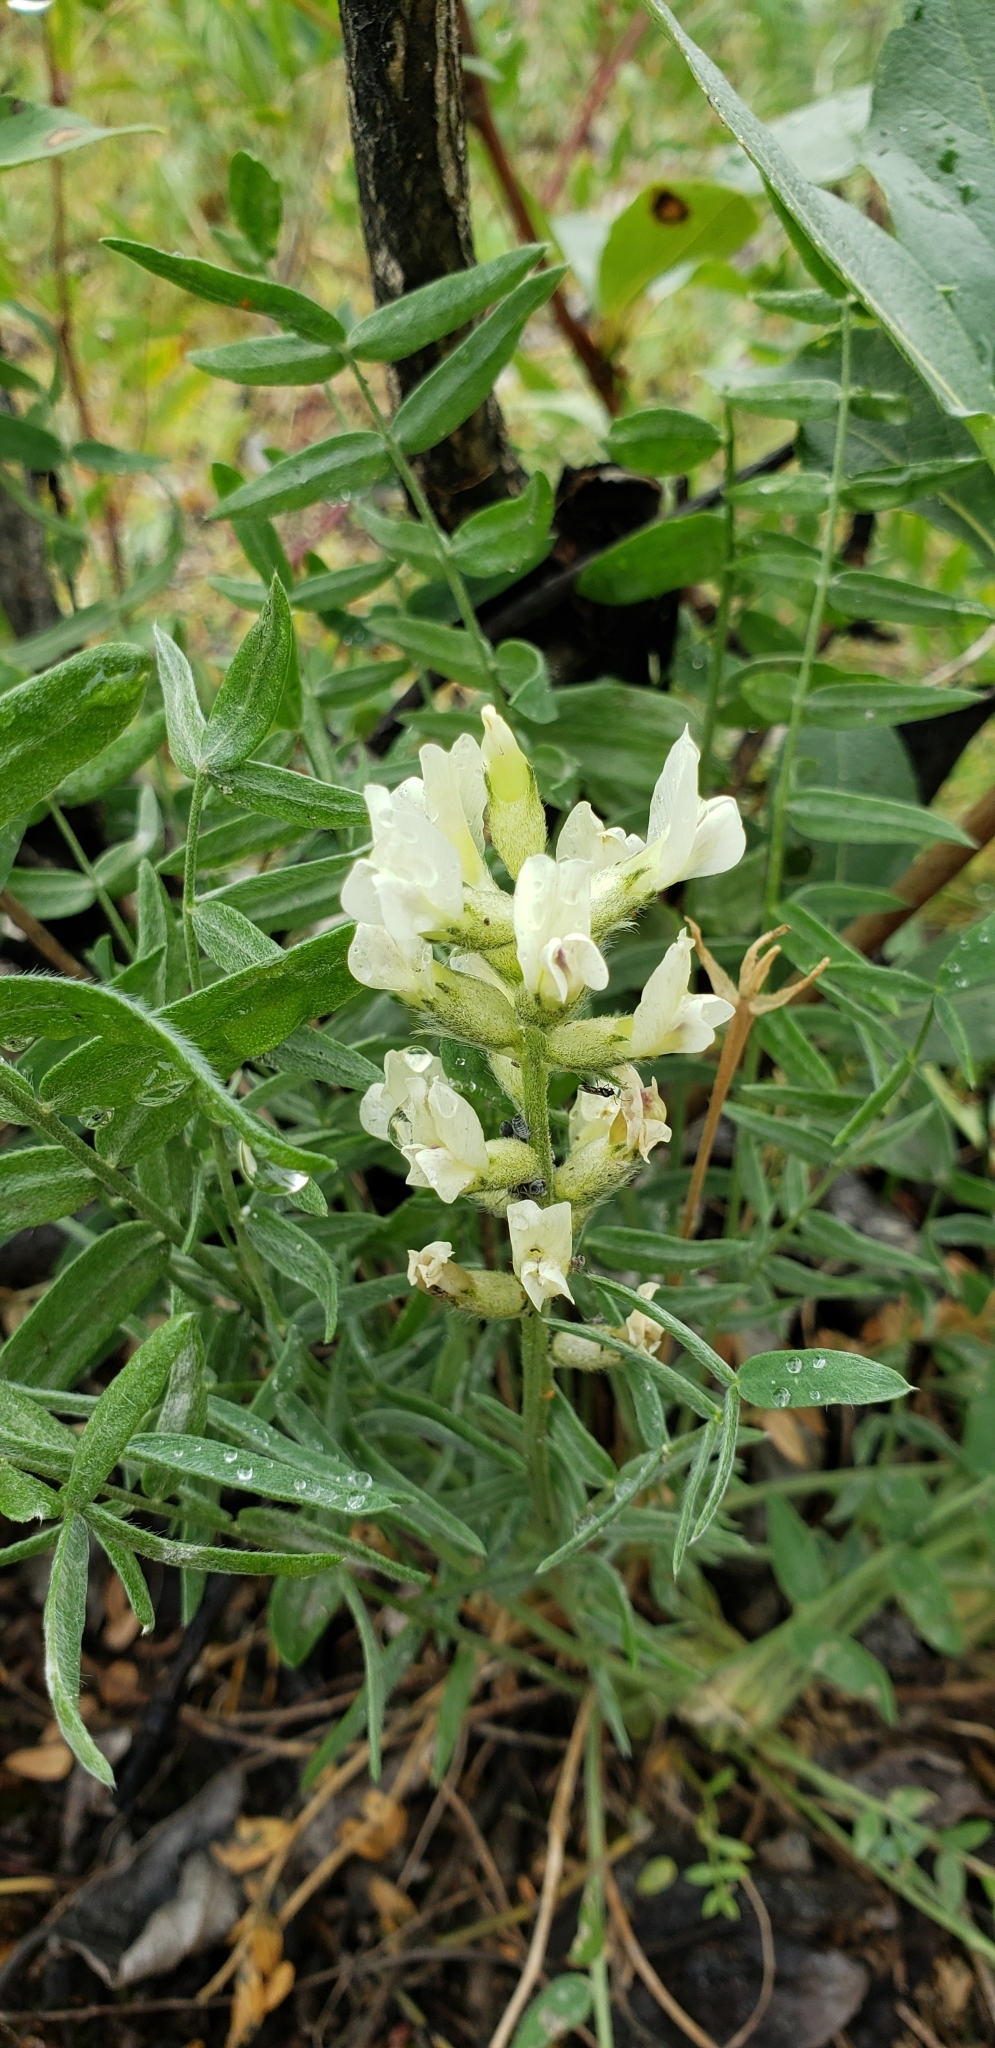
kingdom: Plantae
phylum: Tracheophyta
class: Magnoliopsida
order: Fabales
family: Fabaceae
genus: Oxytropis
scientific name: Oxytropis campestris
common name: Field locoweed
